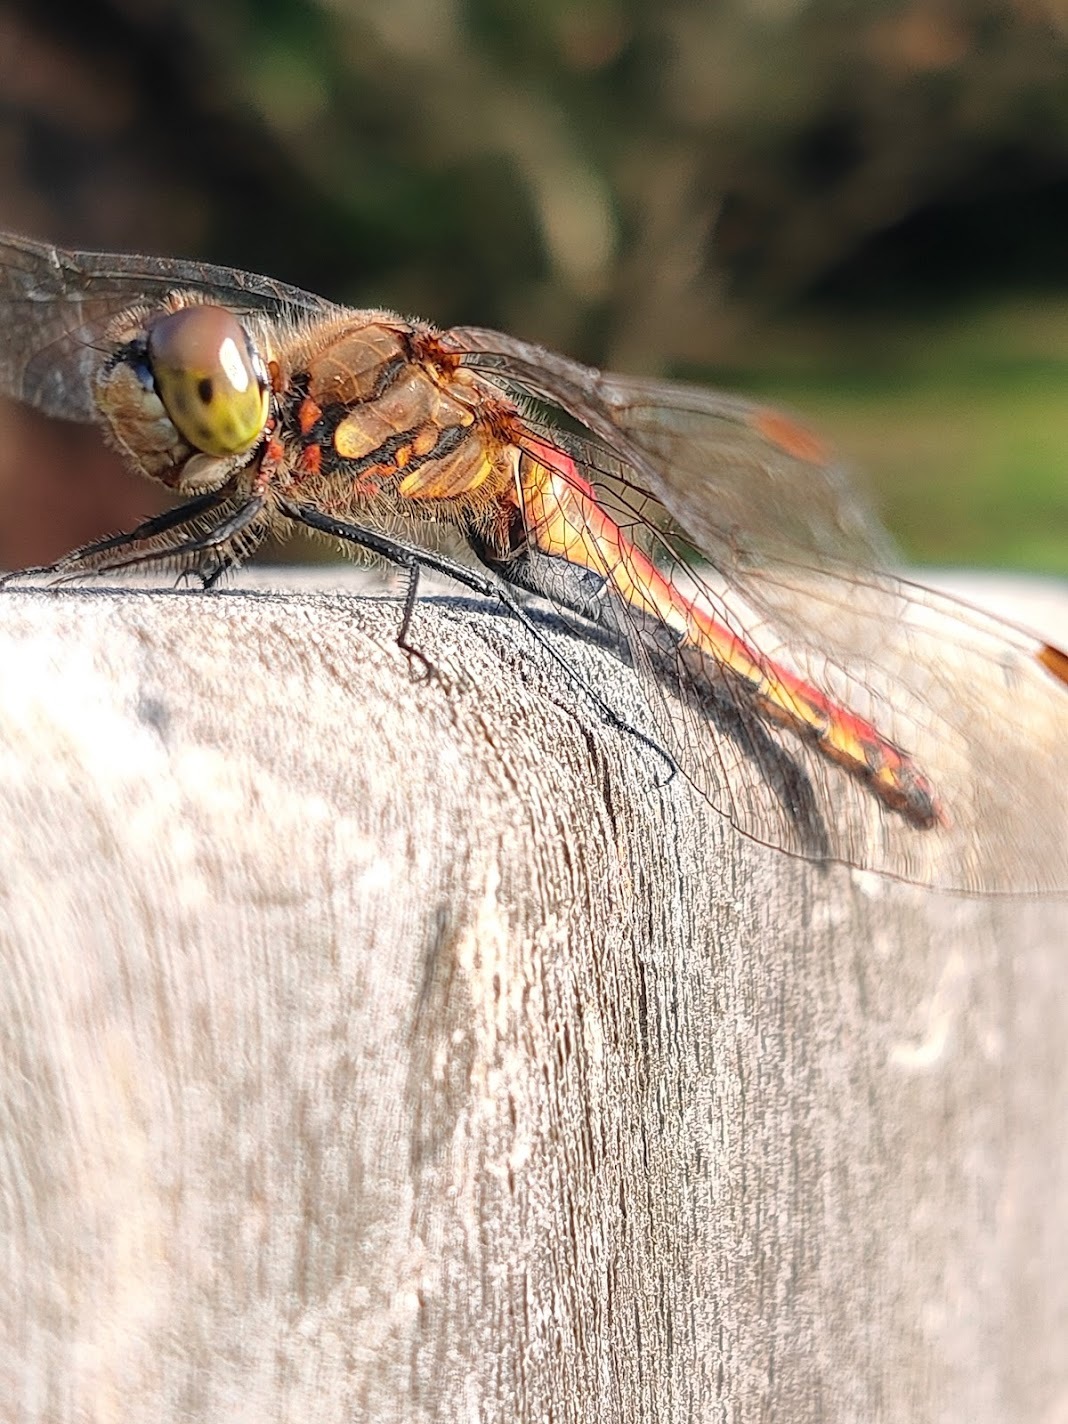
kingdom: Animalia
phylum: Arthropoda
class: Insecta
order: Odonata
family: Libellulidae
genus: Sympetrum
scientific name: Sympetrum frequens
